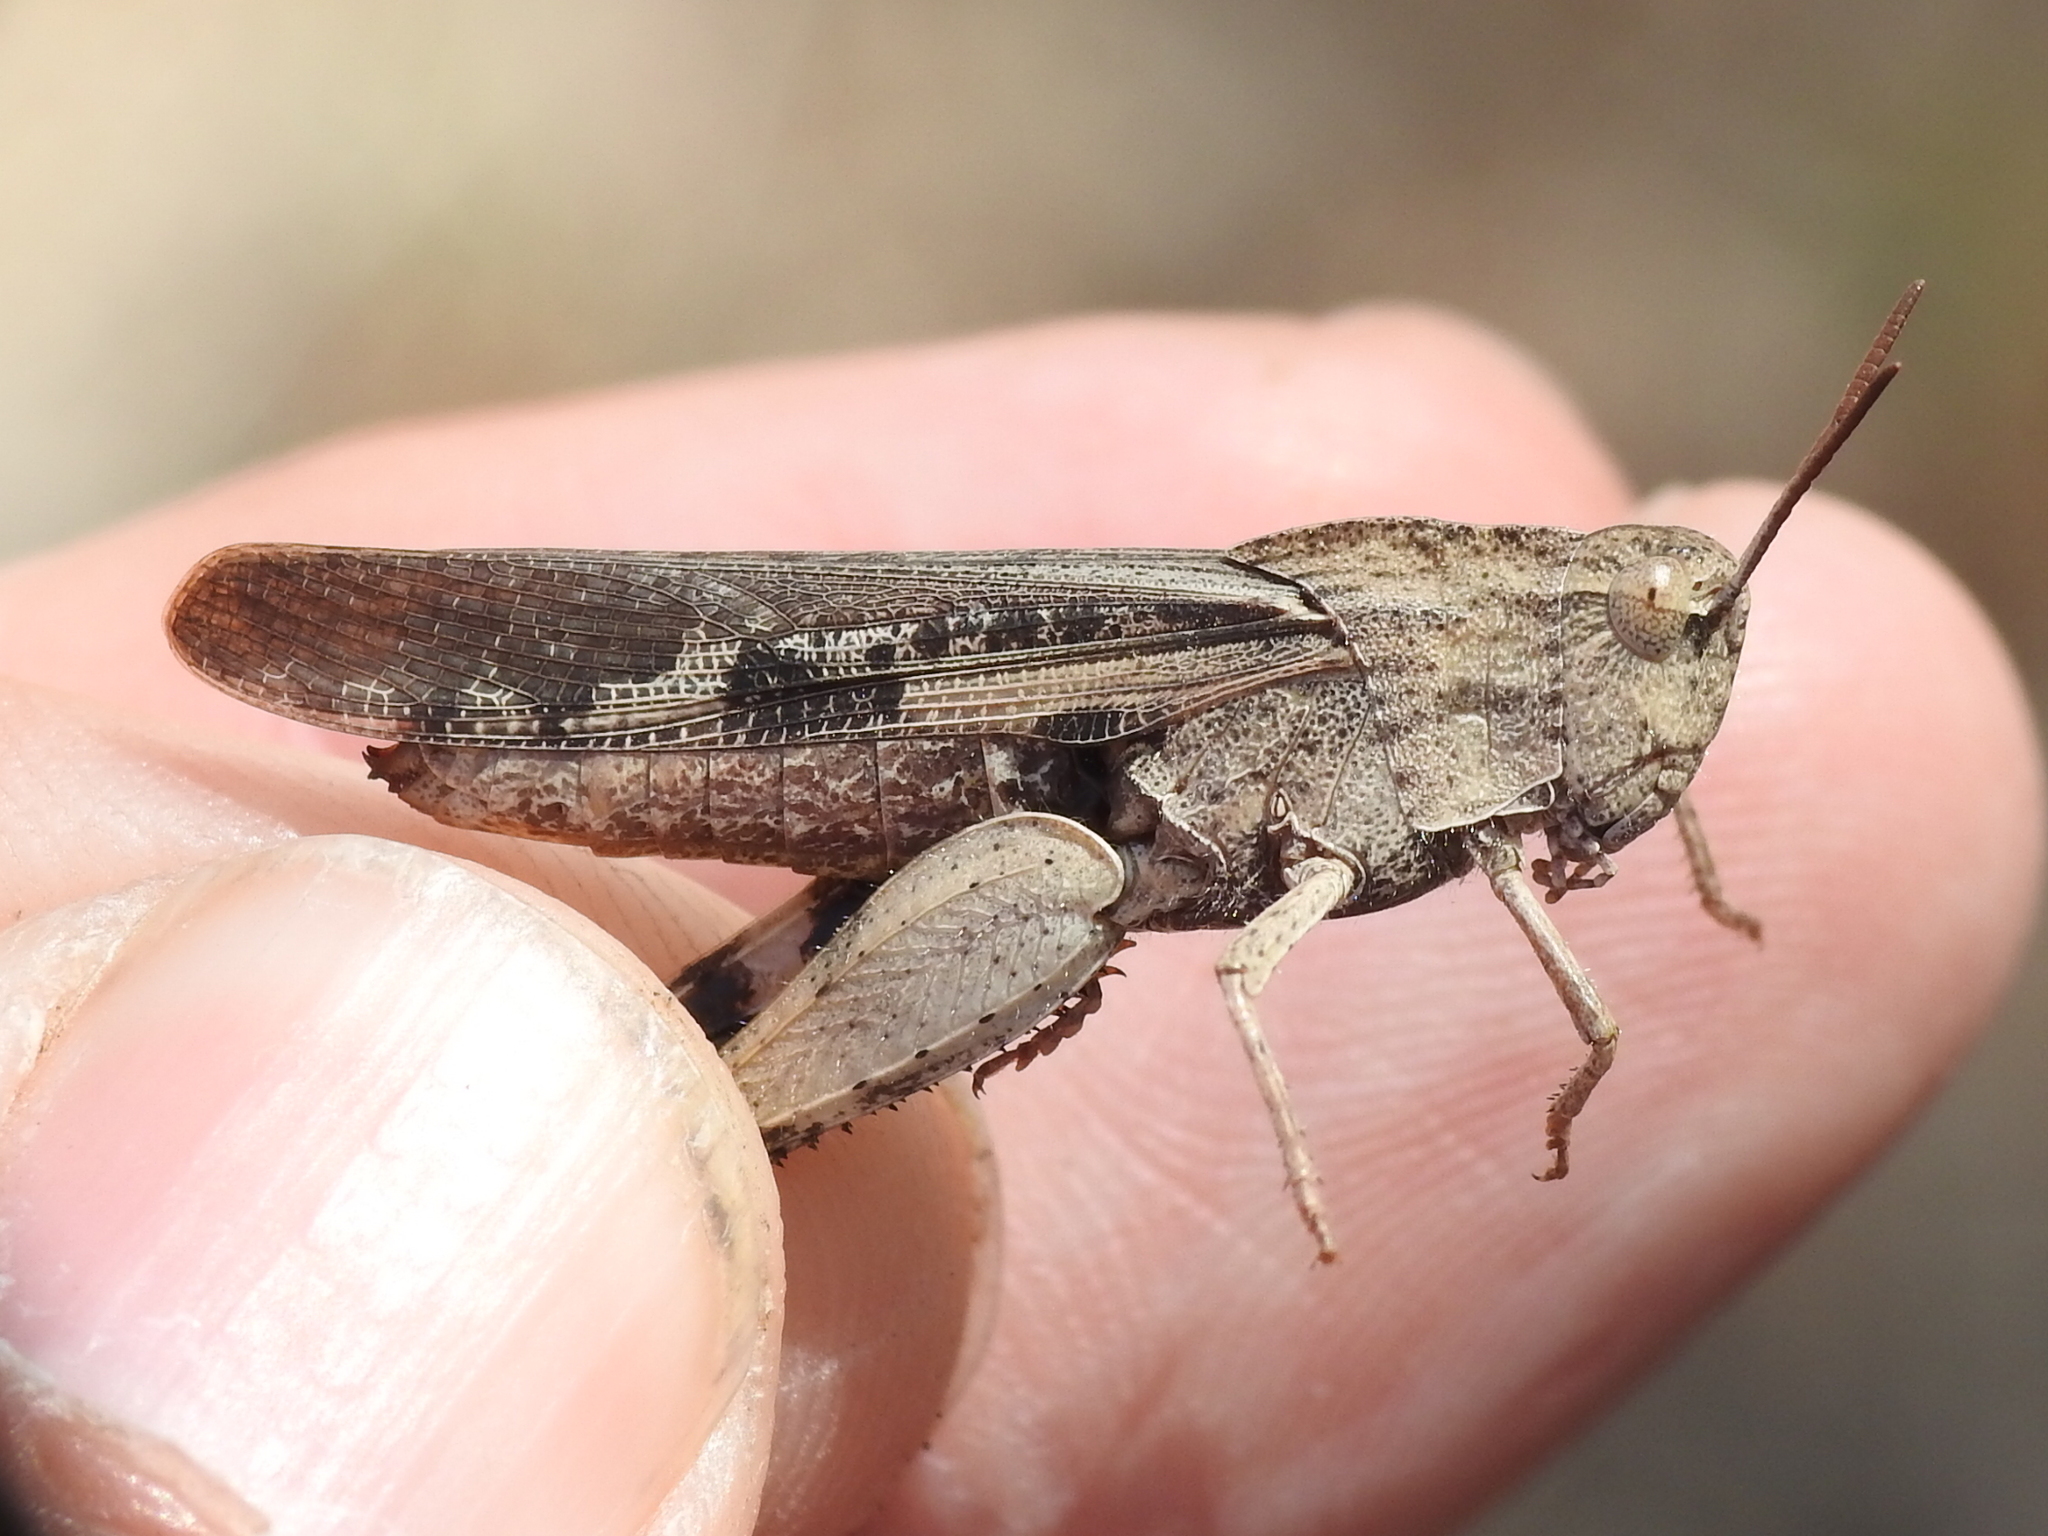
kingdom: Animalia
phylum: Arthropoda
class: Insecta
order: Orthoptera
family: Acrididae
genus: Chortophaga
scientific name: Chortophaga viridifasciata
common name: Green-striped grasshopper
